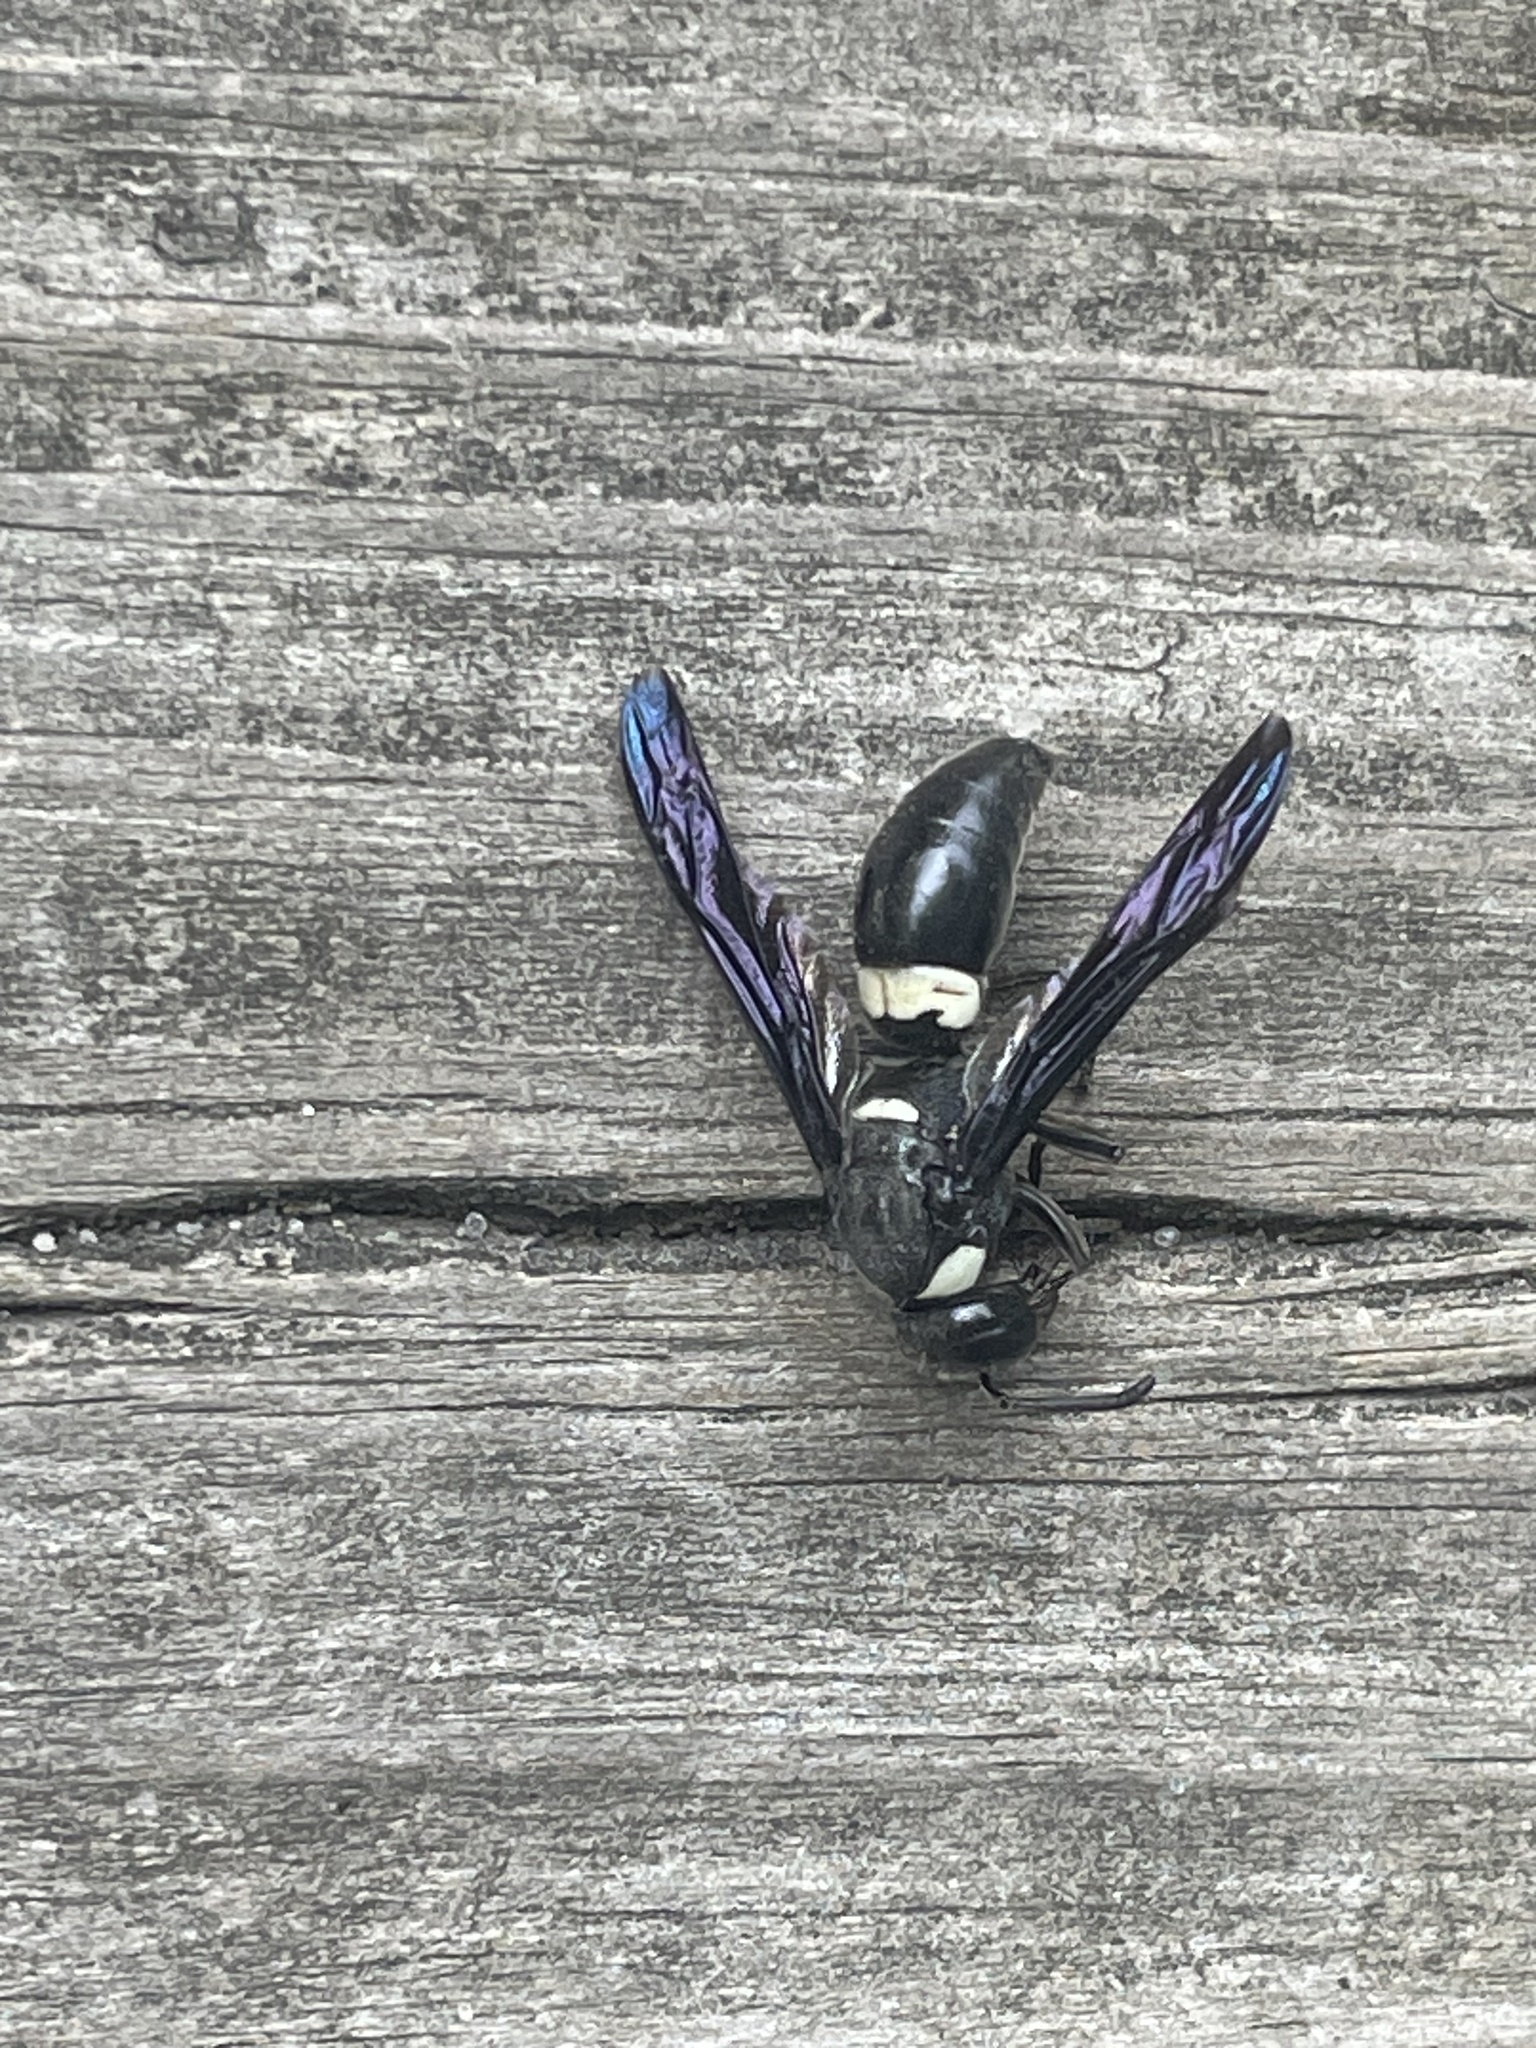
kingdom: Animalia
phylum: Arthropoda
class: Insecta
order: Hymenoptera
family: Eumenidae
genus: Monobia
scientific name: Monobia quadridens
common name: Four-toothed mason wasp
